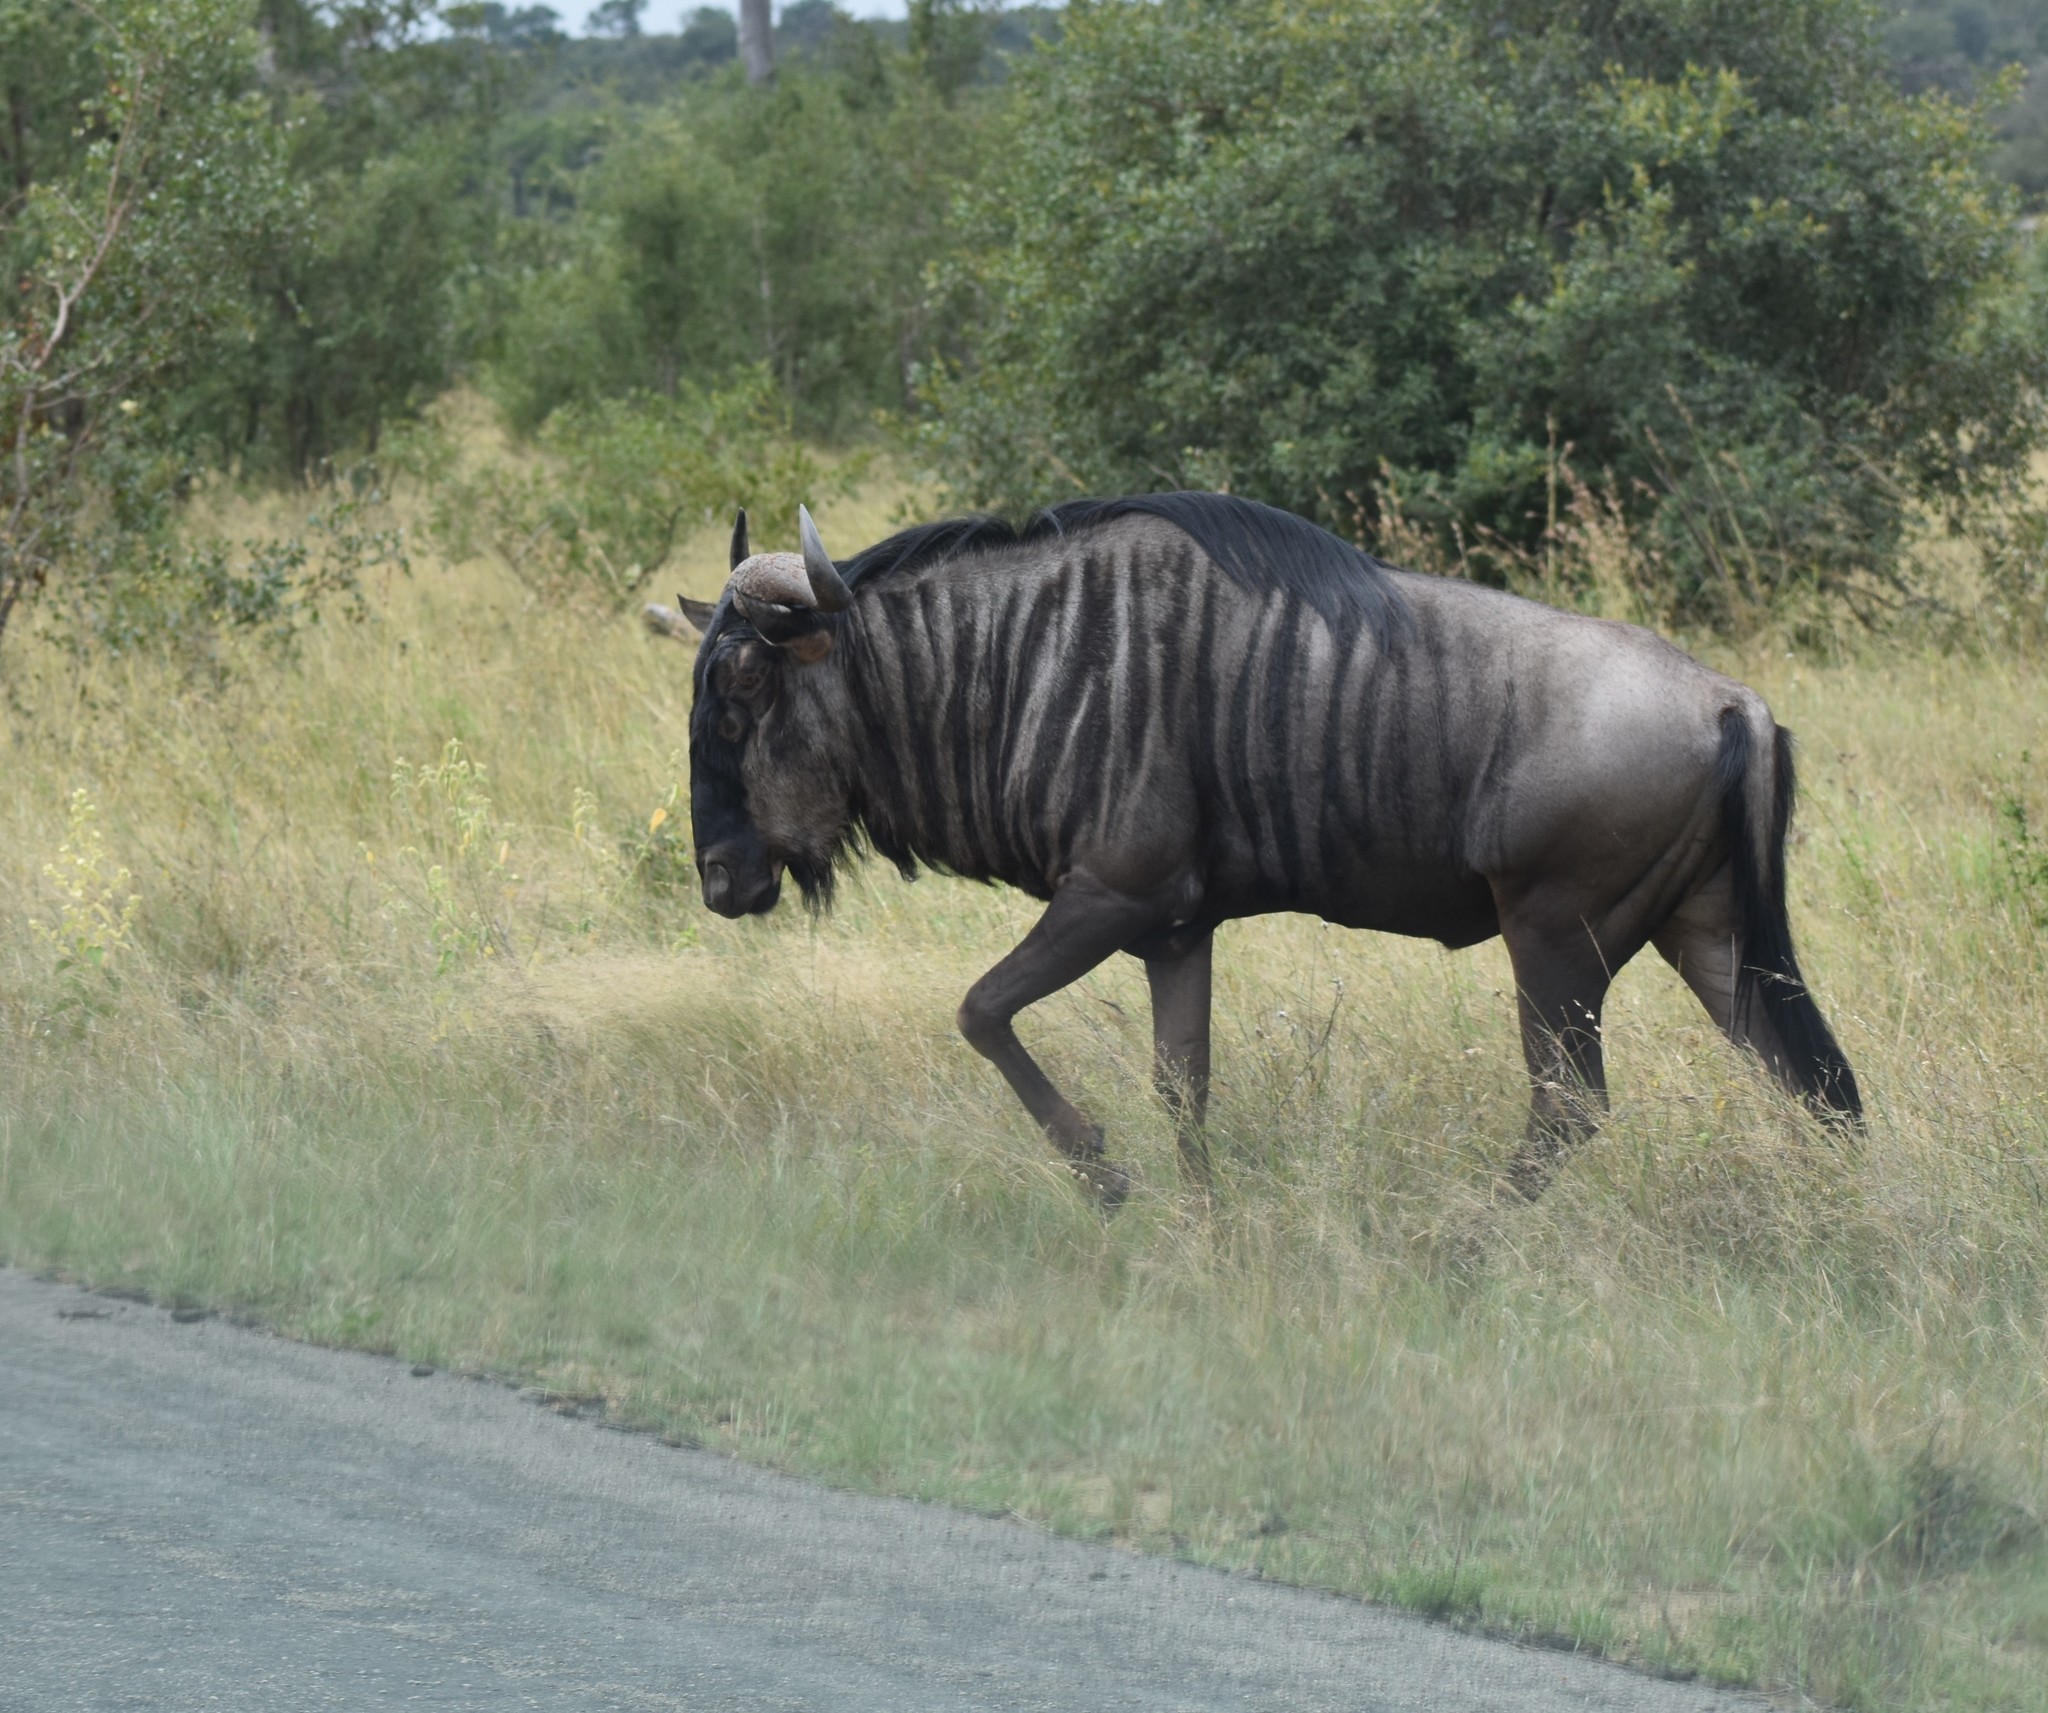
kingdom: Animalia
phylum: Chordata
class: Mammalia
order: Artiodactyla
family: Bovidae
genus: Connochaetes
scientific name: Connochaetes taurinus
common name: Blue wildebeest
